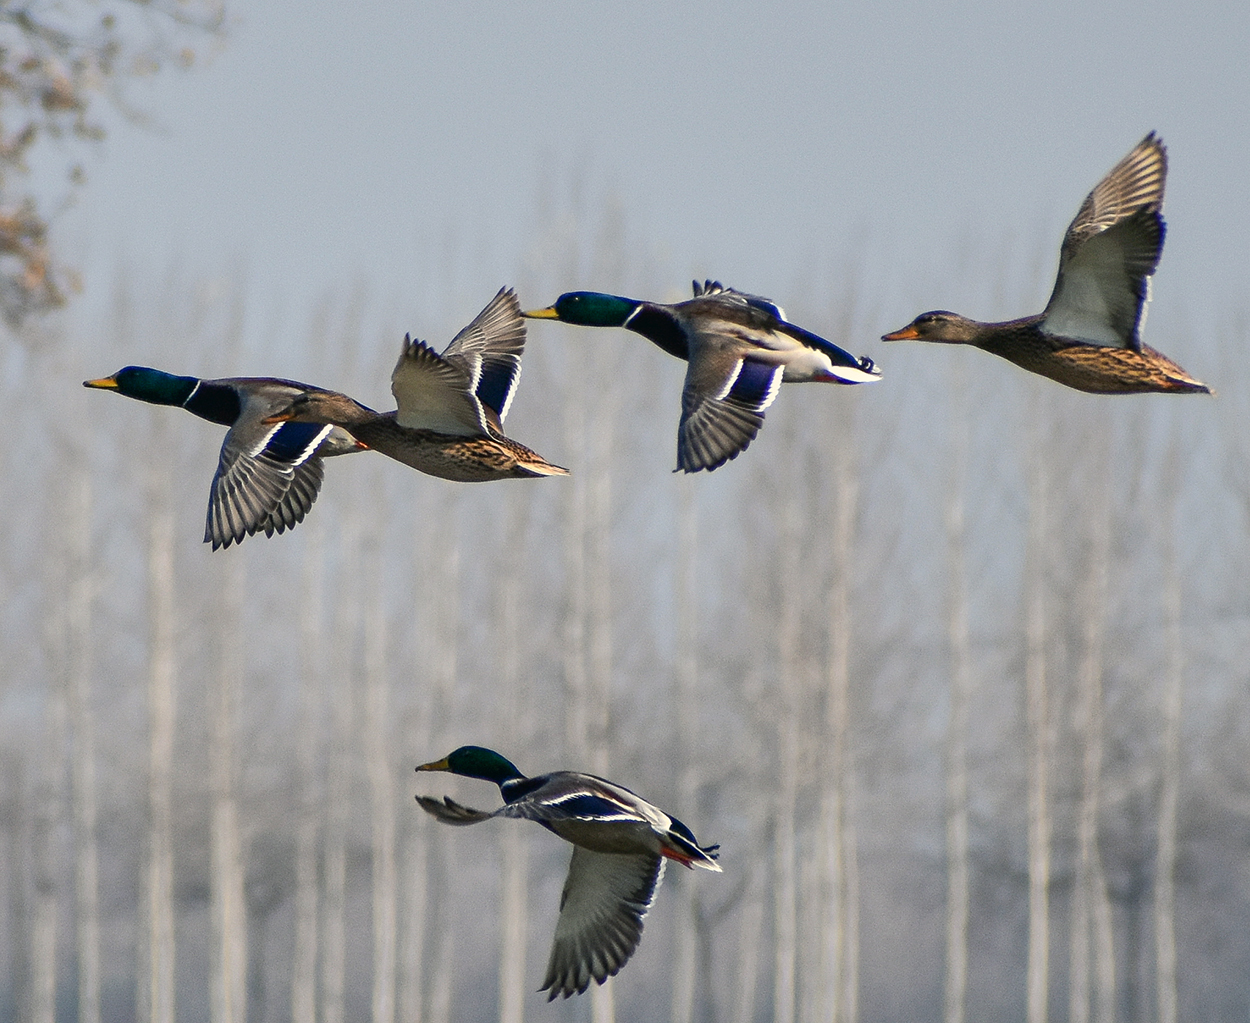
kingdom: Animalia
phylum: Chordata
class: Aves
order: Anseriformes
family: Anatidae
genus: Anas
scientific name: Anas platyrhynchos
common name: Mallard
